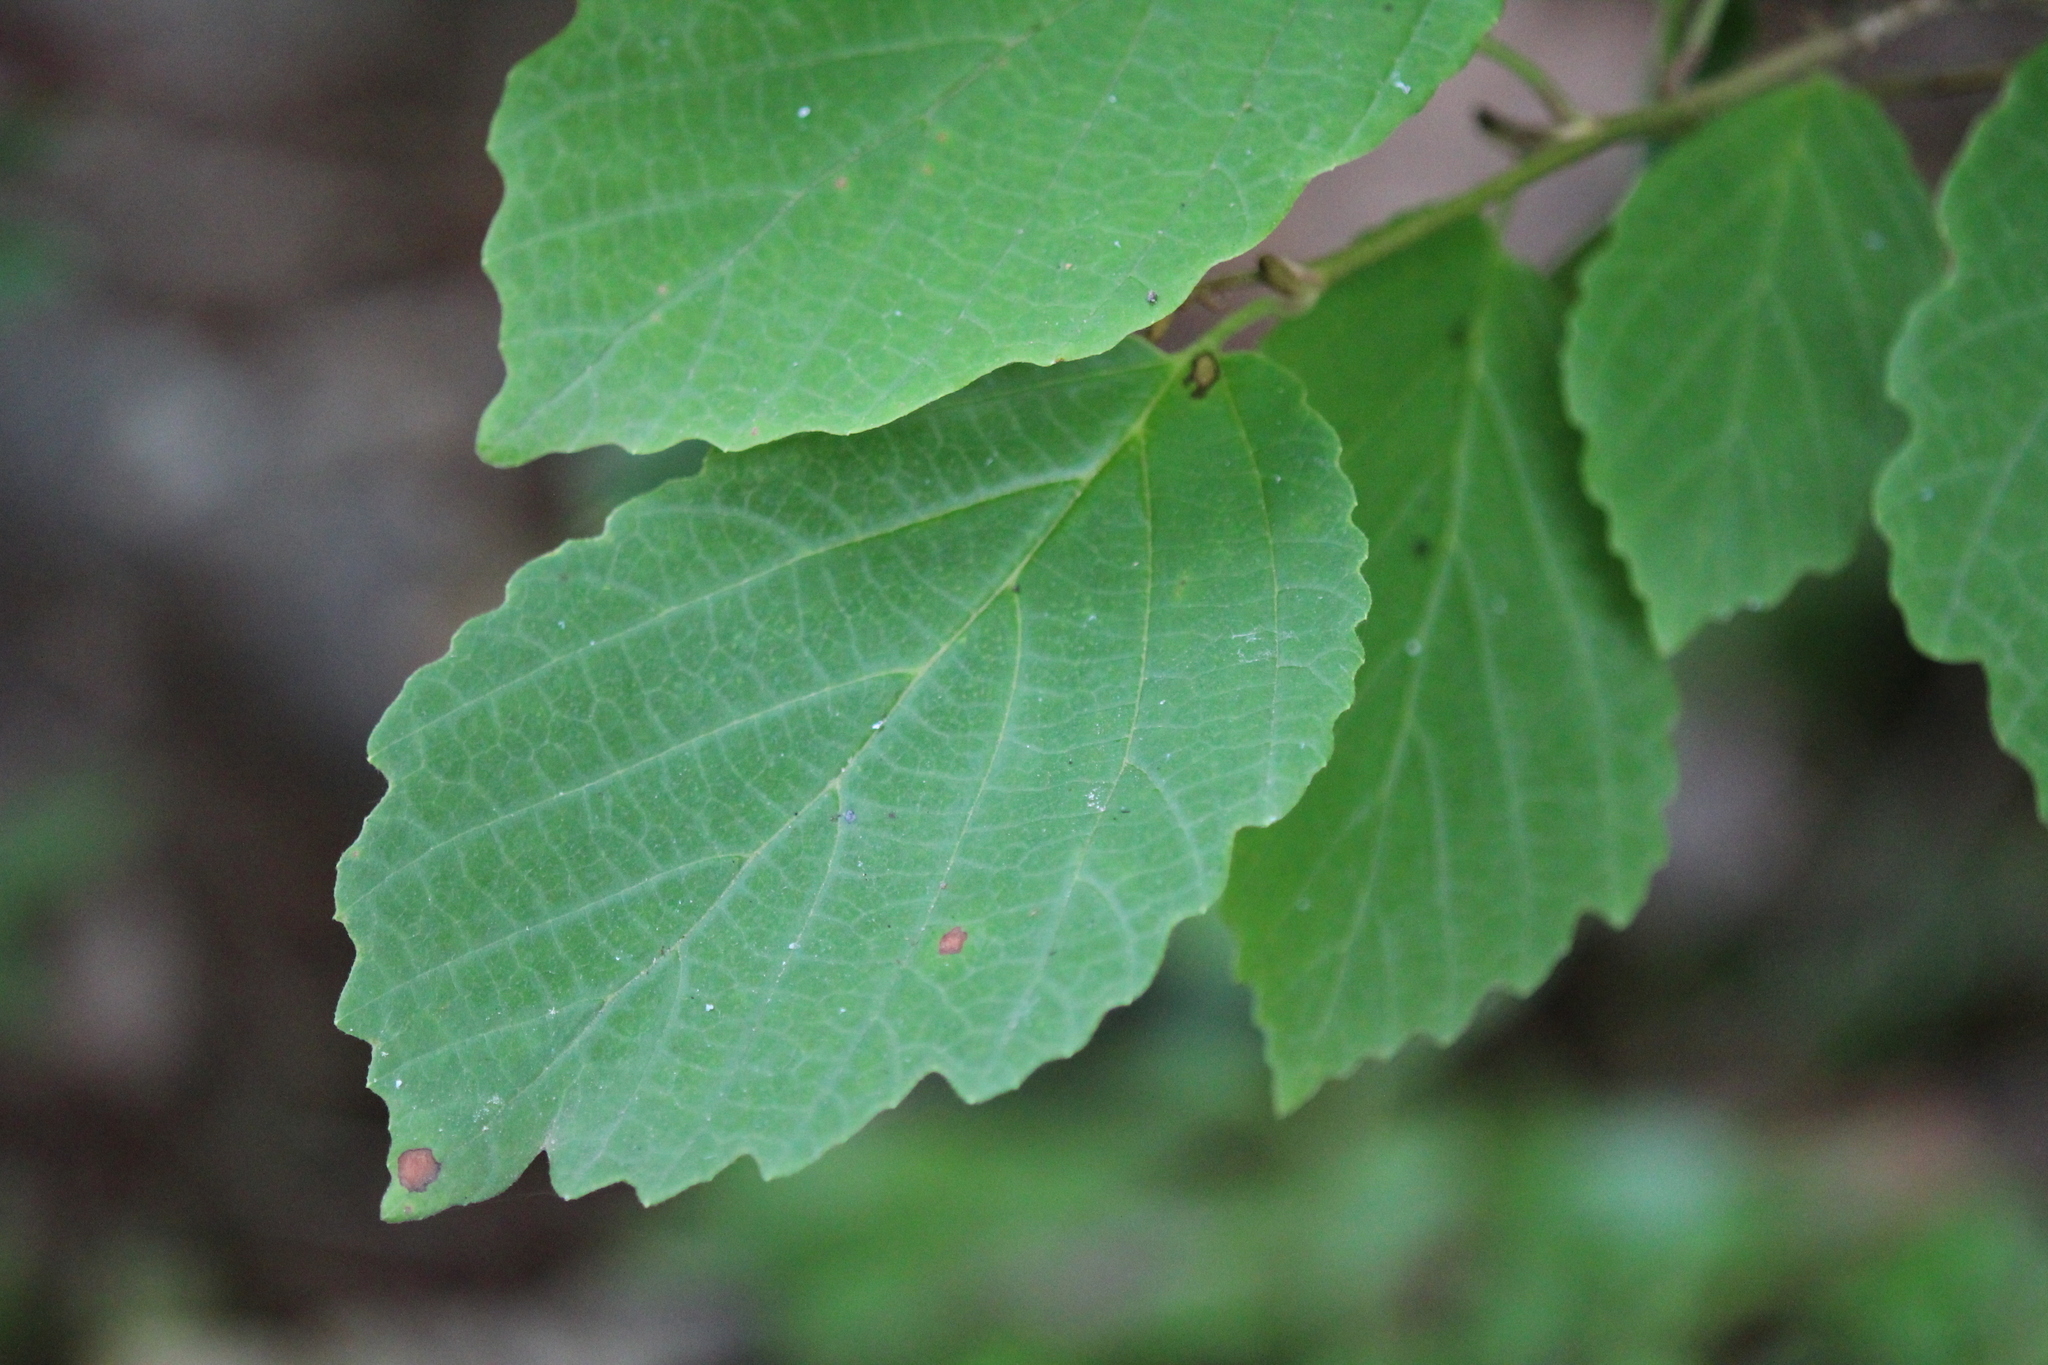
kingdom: Plantae
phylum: Tracheophyta
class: Magnoliopsida
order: Saxifragales
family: Hamamelidaceae
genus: Hamamelis
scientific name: Hamamelis virginiana
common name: Witch-hazel
